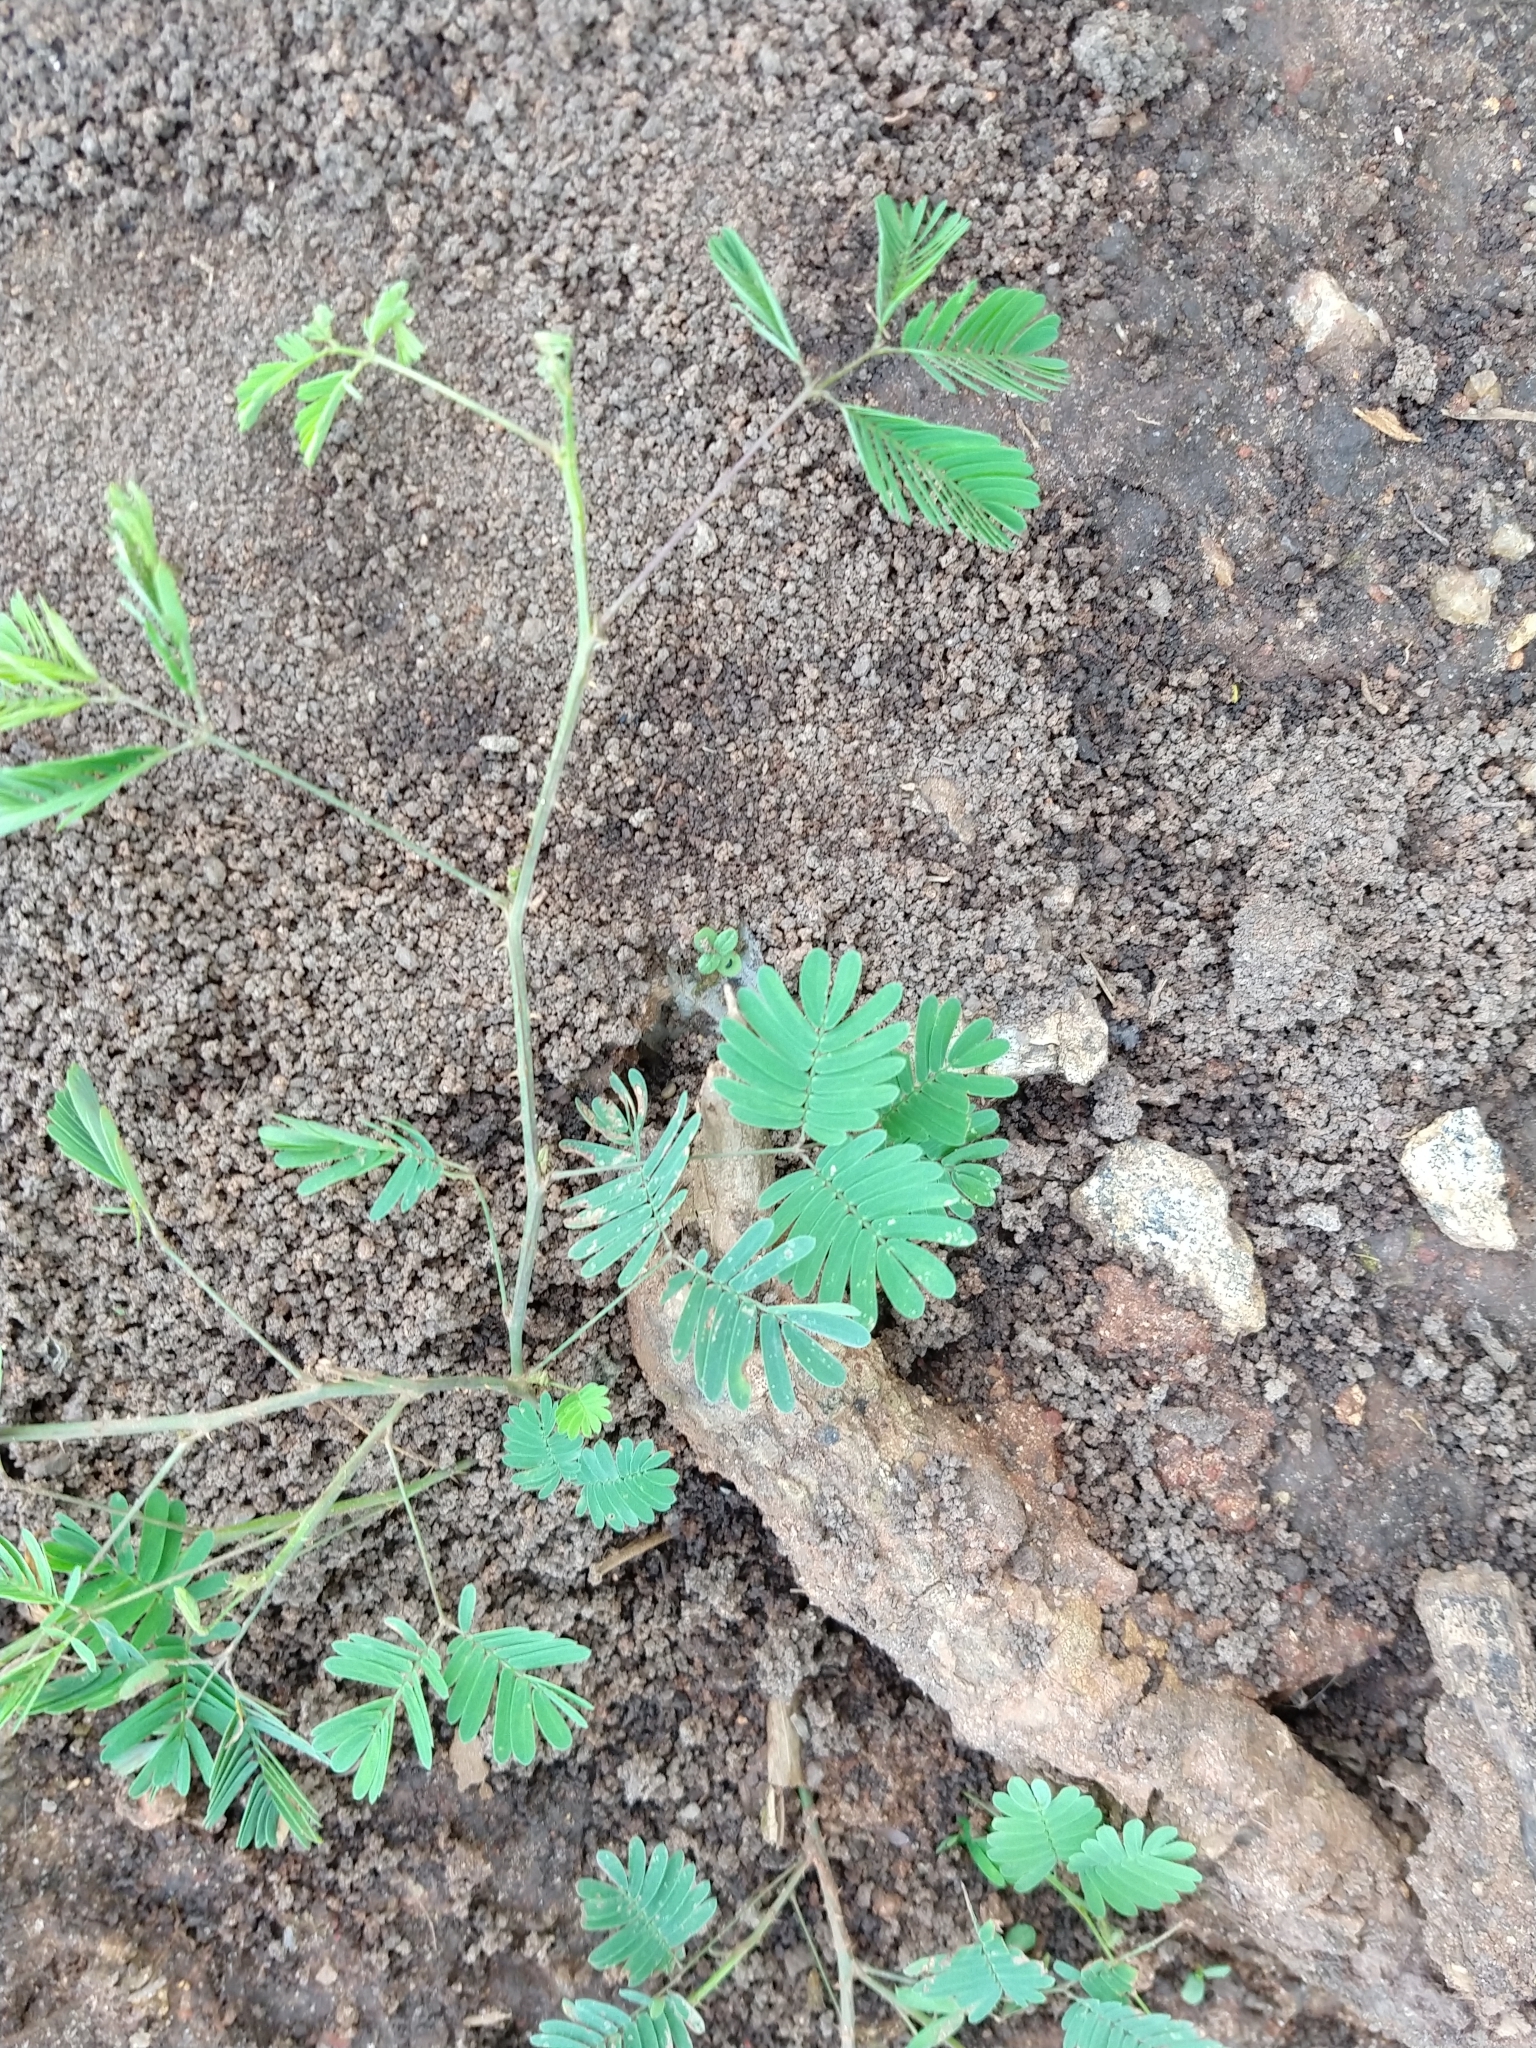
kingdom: Plantae
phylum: Tracheophyta
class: Magnoliopsida
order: Fabales
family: Fabaceae
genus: Mimosa
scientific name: Mimosa candollei
